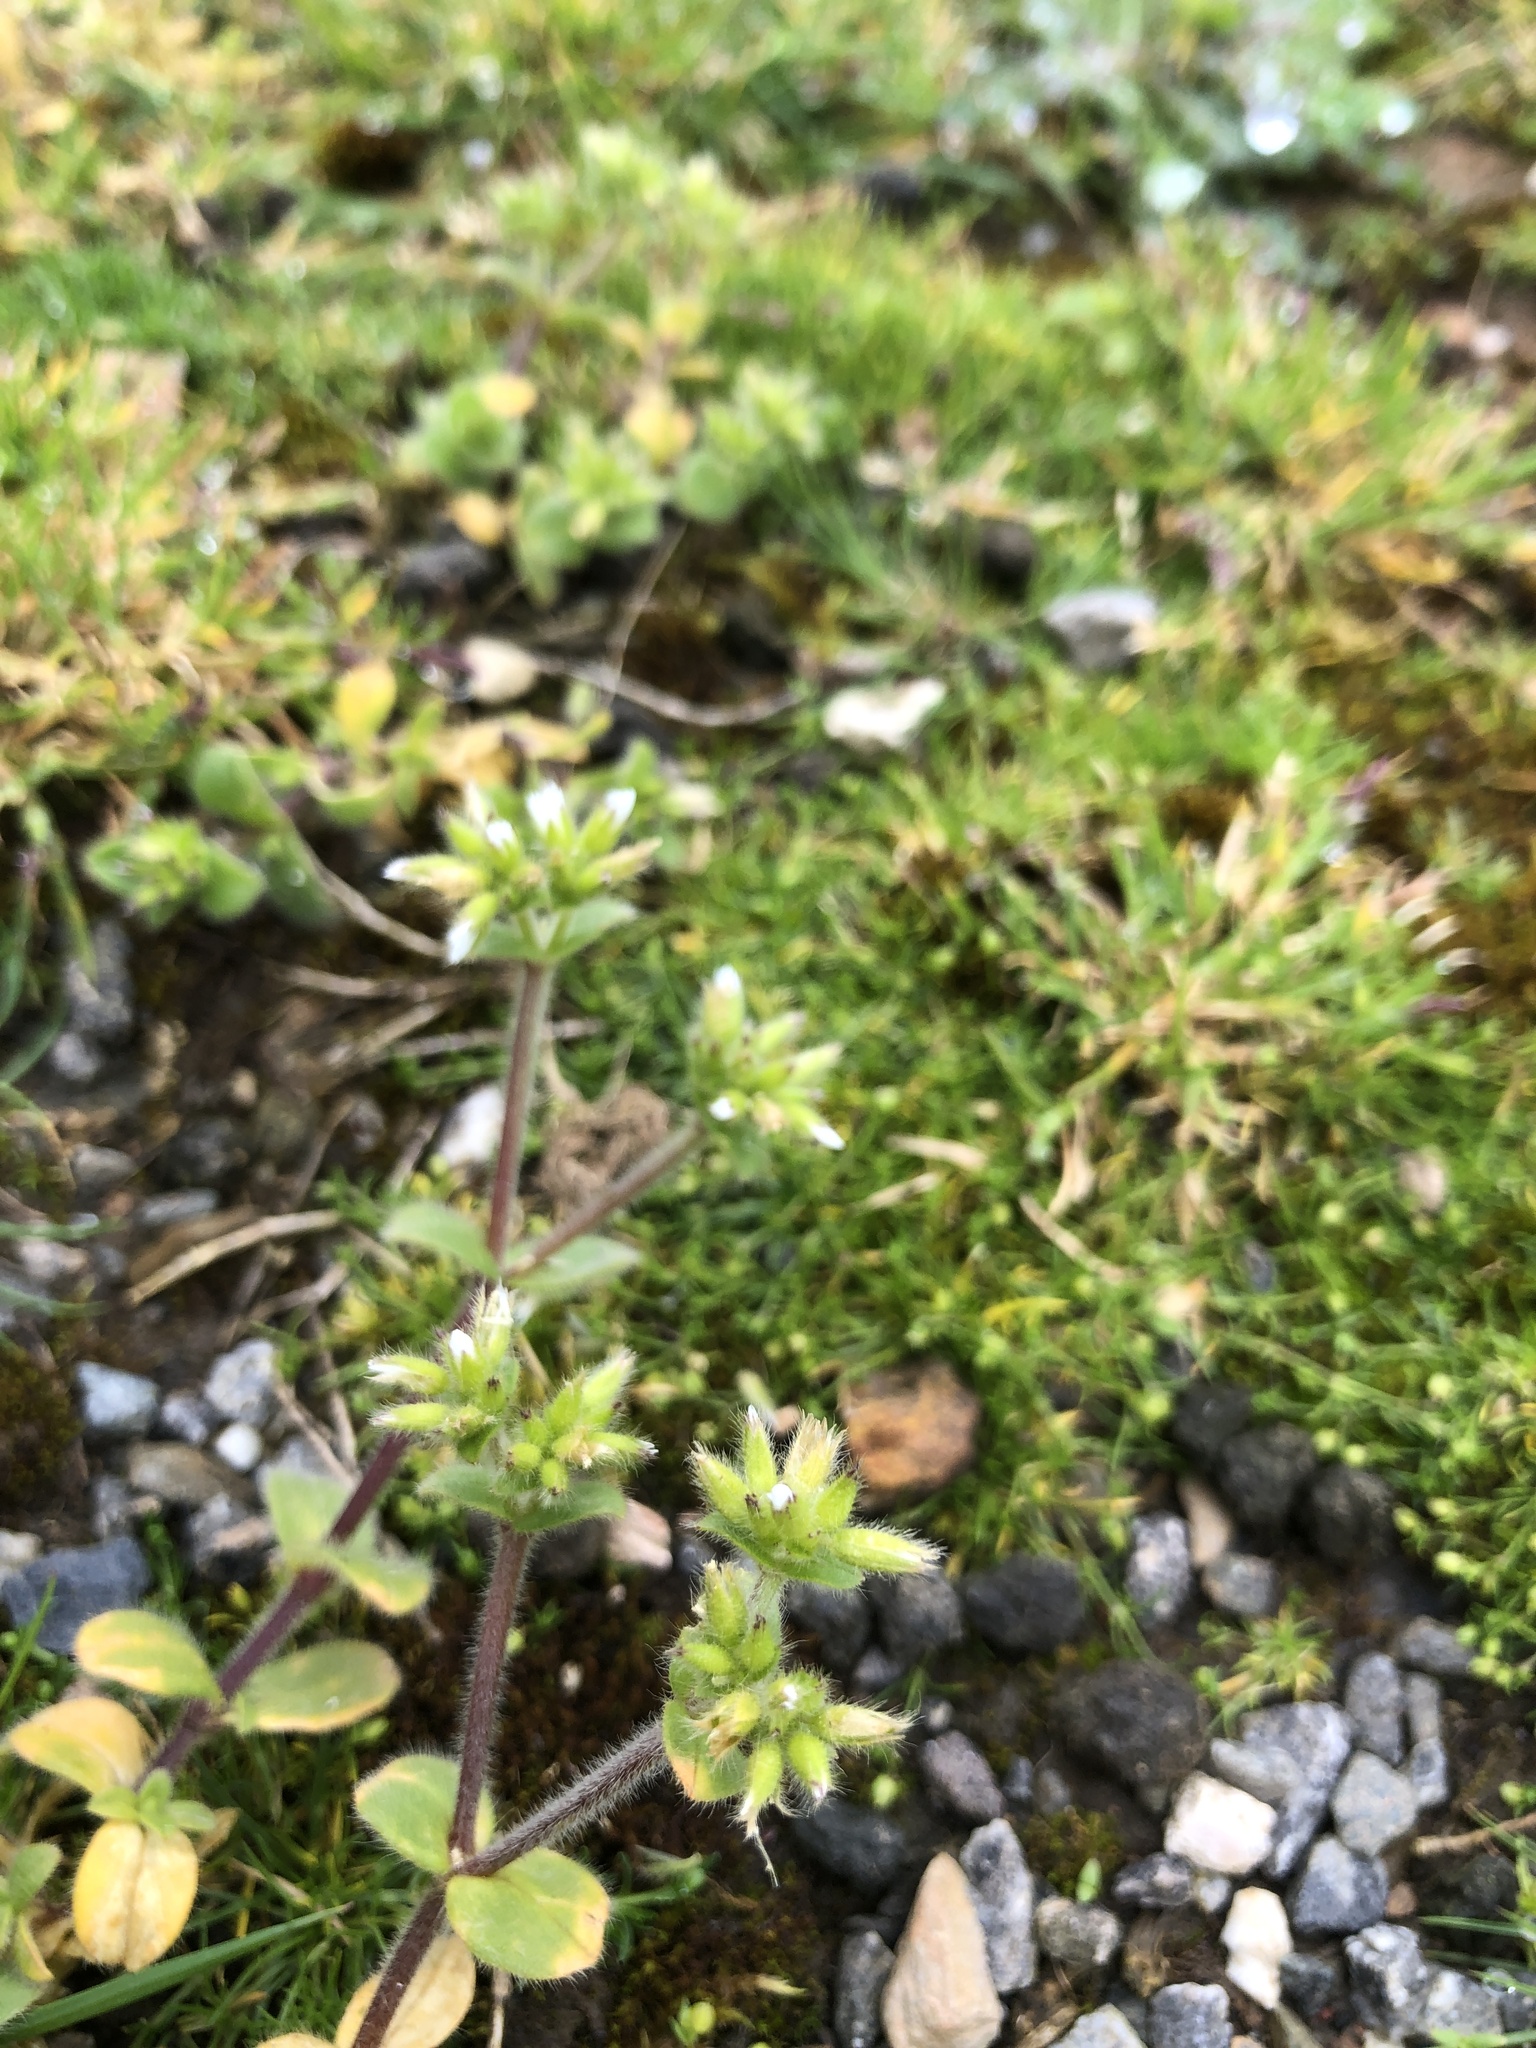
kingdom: Plantae
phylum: Tracheophyta
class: Magnoliopsida
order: Caryophyllales
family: Caryophyllaceae
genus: Cerastium
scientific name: Cerastium glomeratum
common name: Sticky chickweed
